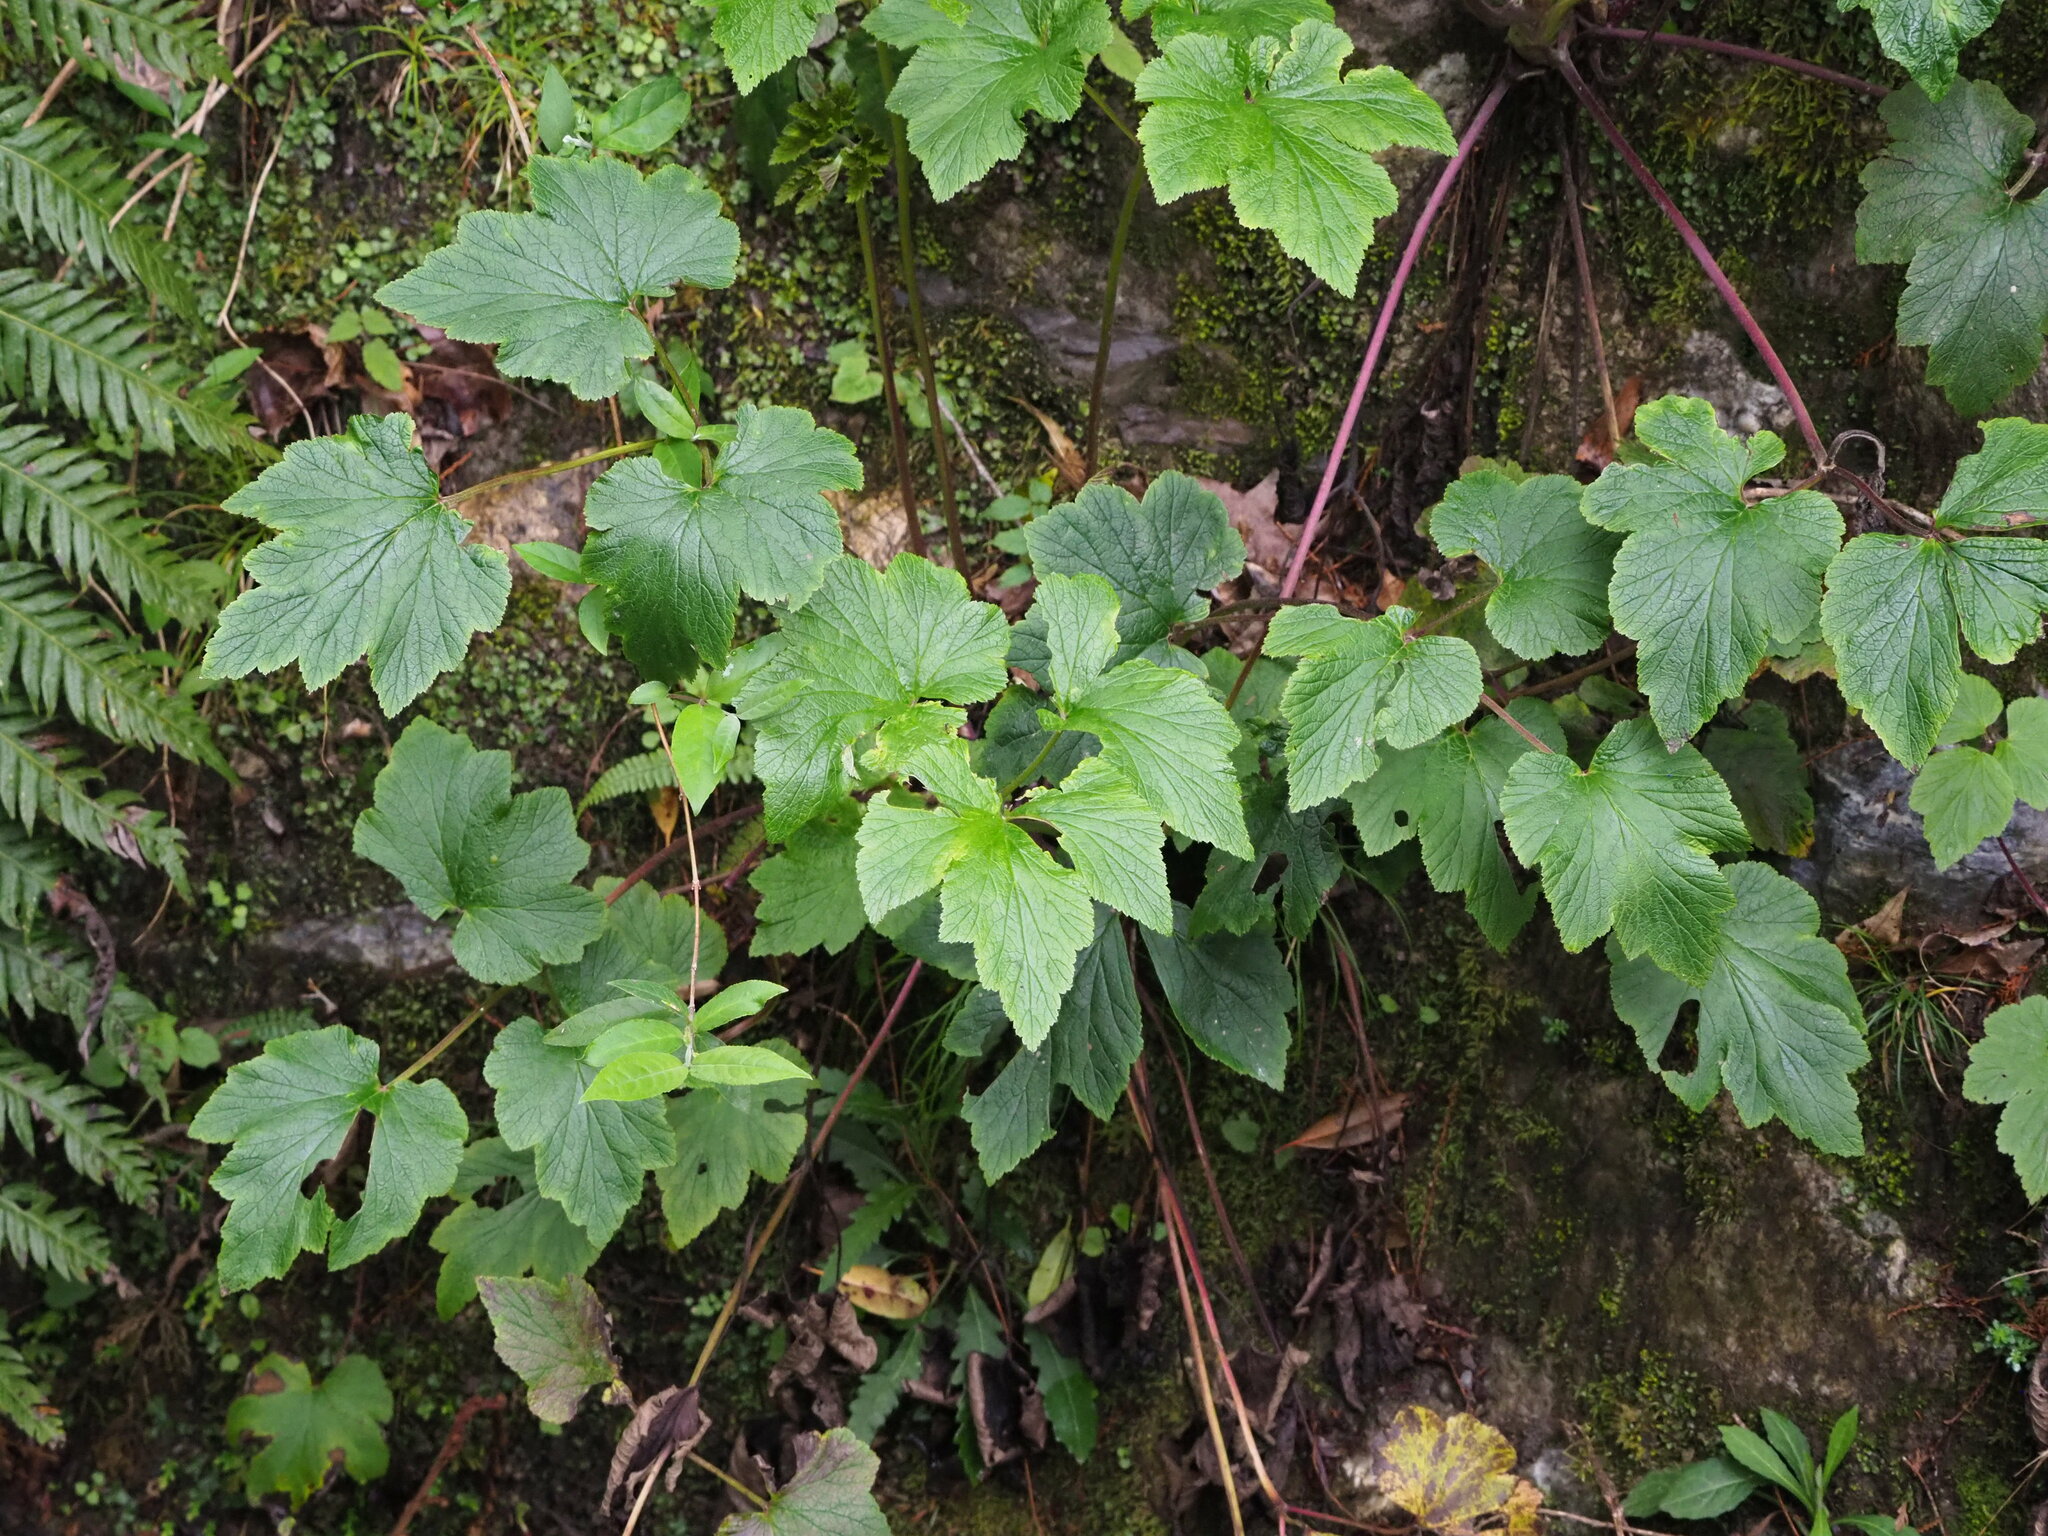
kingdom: Plantae
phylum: Tracheophyta
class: Magnoliopsida
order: Ranunculales
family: Ranunculaceae
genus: Eriocapitella
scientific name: Eriocapitella vitifolia
